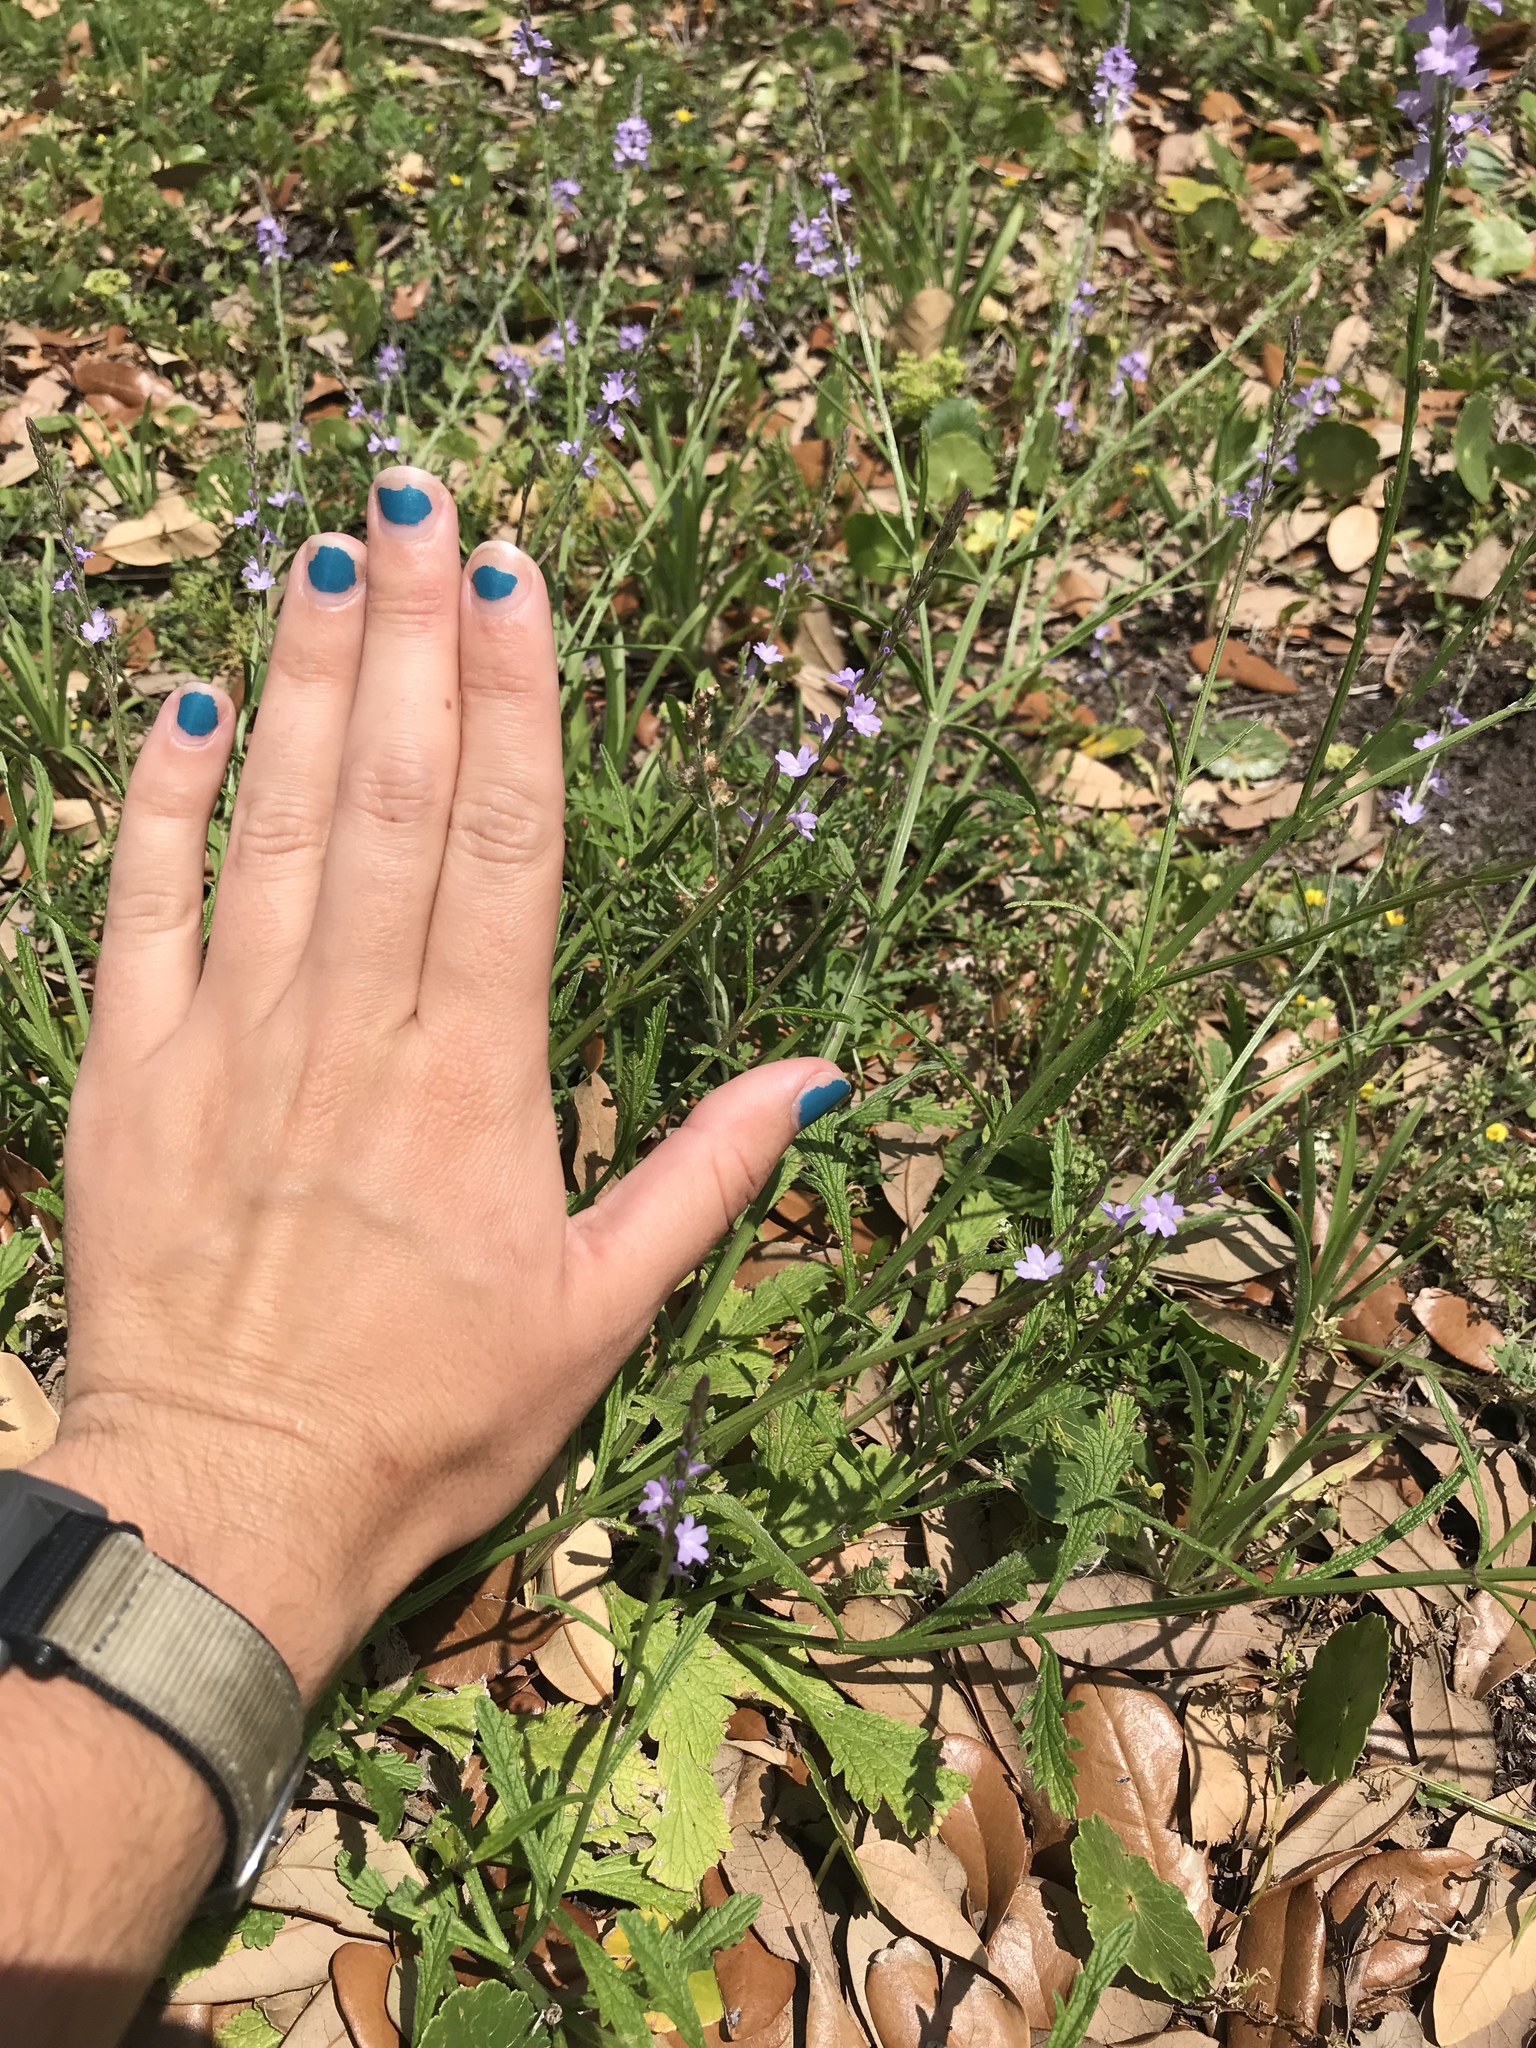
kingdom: Plantae
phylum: Tracheophyta
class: Magnoliopsida
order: Lamiales
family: Verbenaceae
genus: Verbena
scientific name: Verbena halei
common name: Texas vervain
